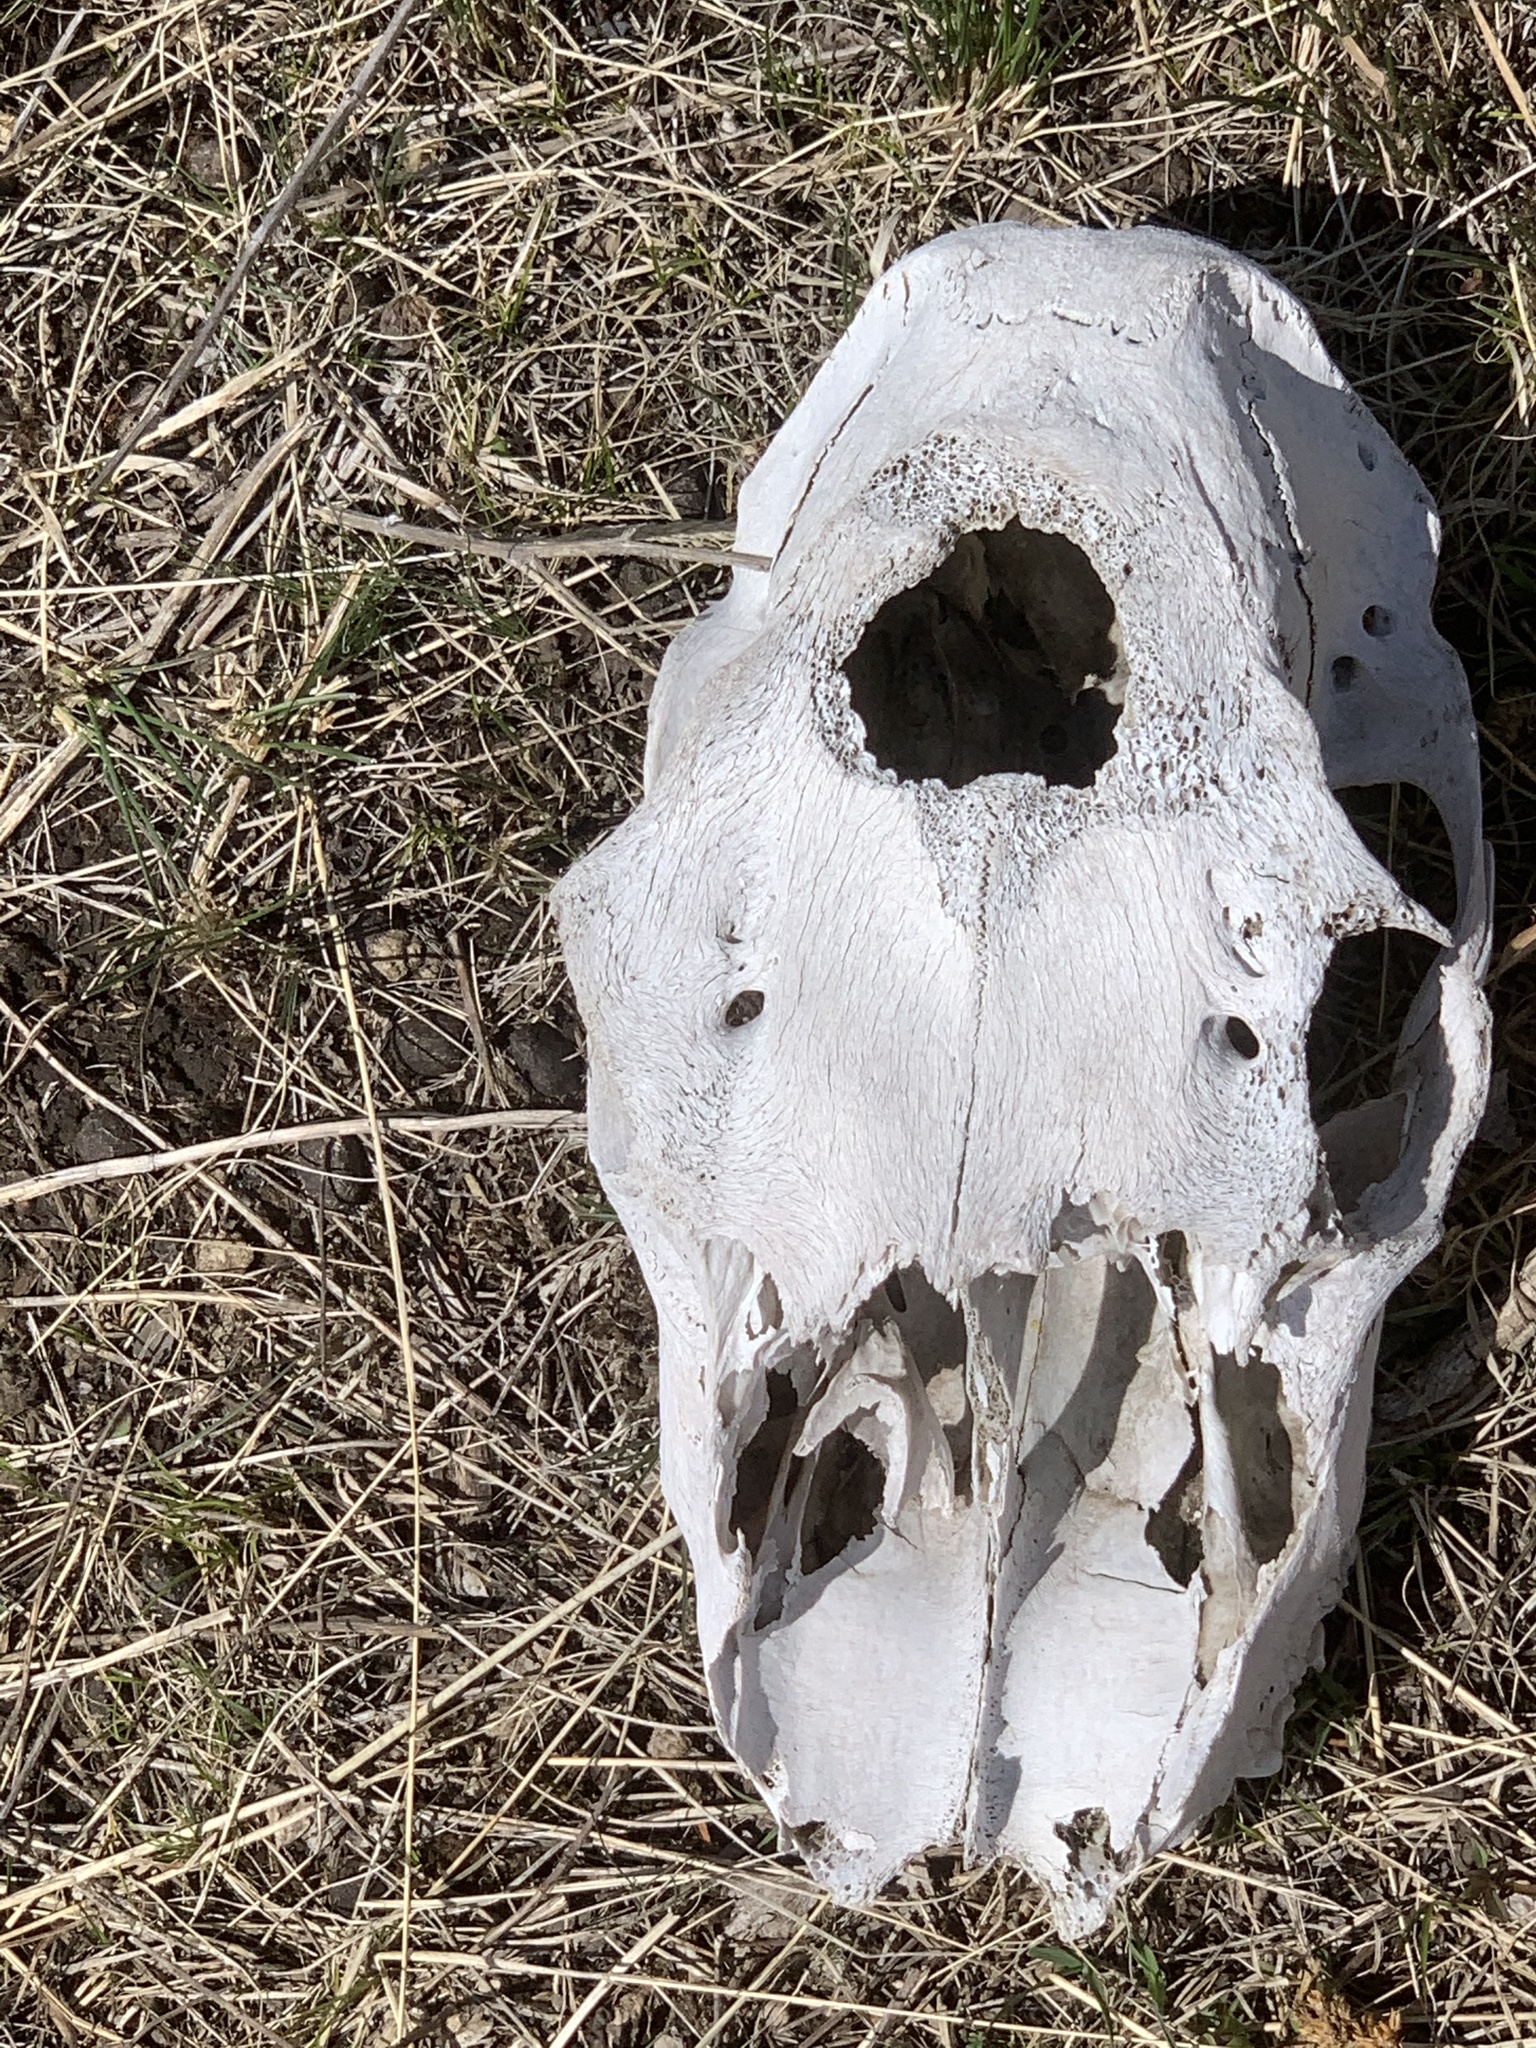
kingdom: Animalia
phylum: Chordata
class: Mammalia
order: Artiodactyla
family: Cervidae
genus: Cervus
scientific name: Cervus elaphus
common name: Red deer
